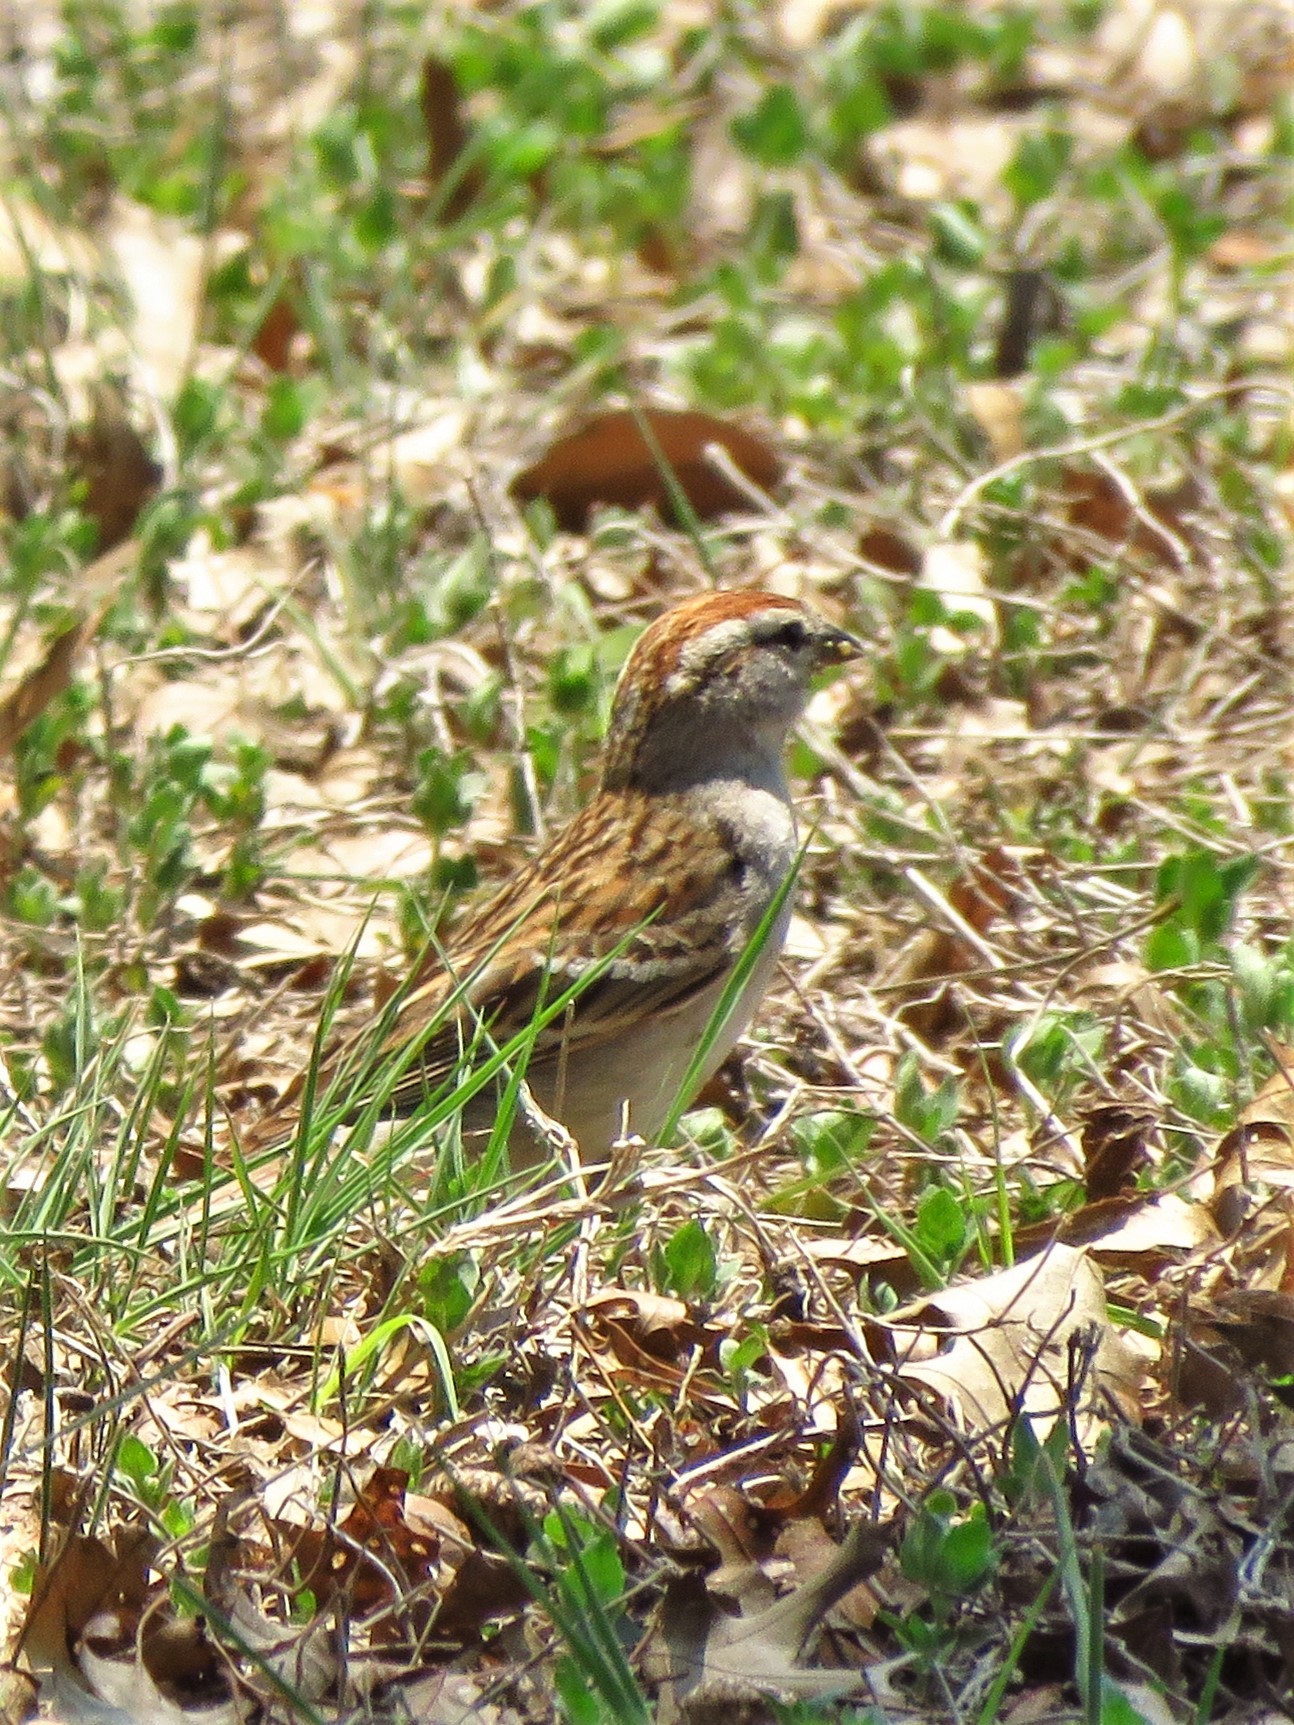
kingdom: Animalia
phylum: Chordata
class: Aves
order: Passeriformes
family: Passerellidae
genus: Spizella
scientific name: Spizella passerina
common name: Chipping sparrow
